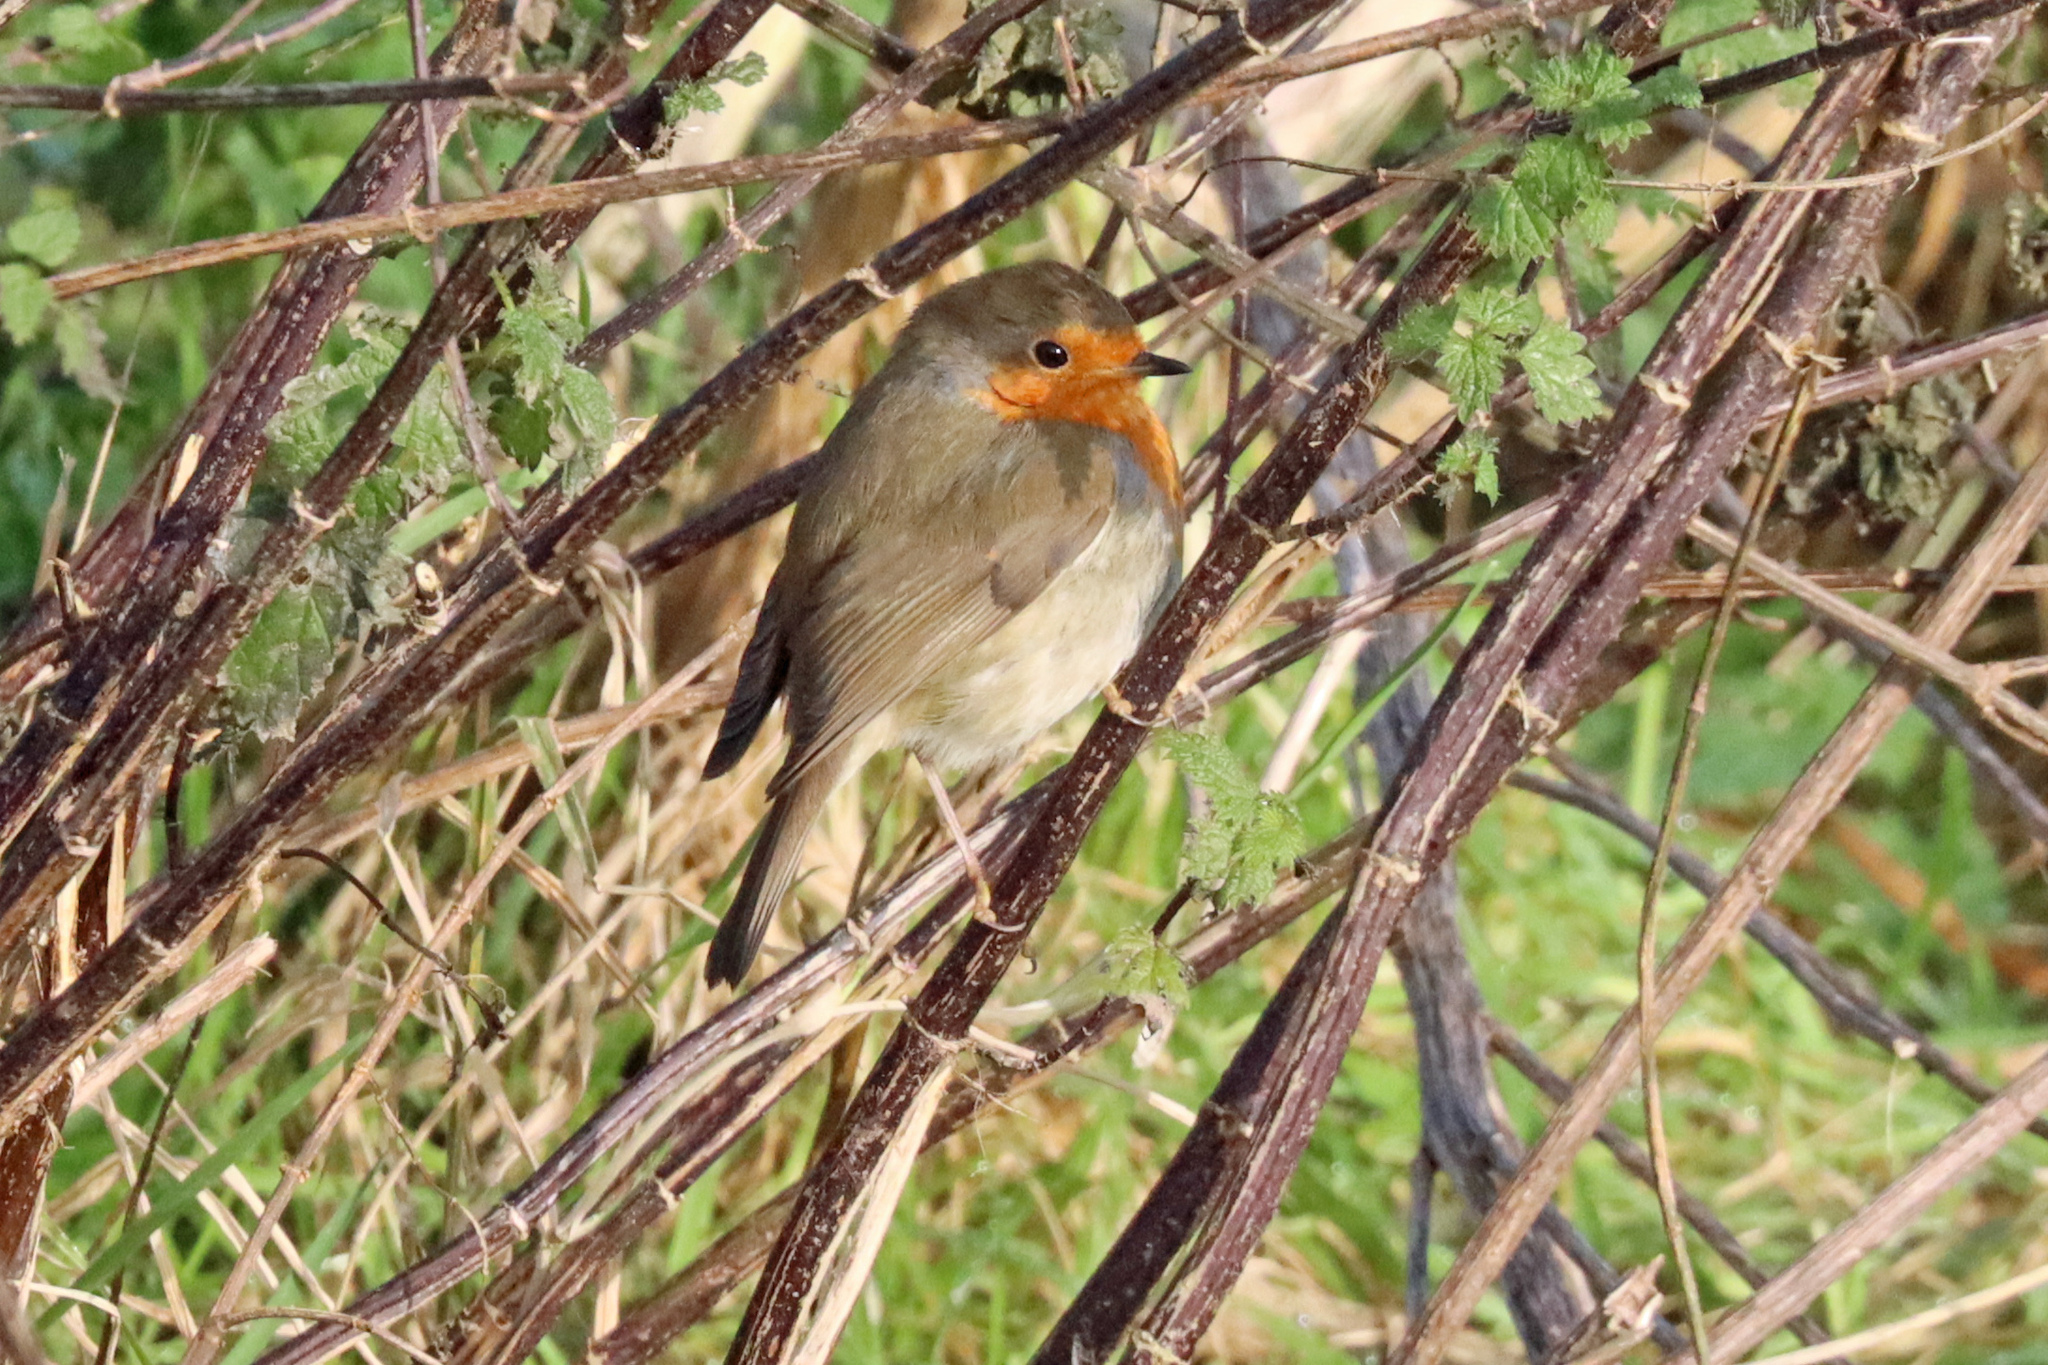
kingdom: Animalia
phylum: Chordata
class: Aves
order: Passeriformes
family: Muscicapidae
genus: Erithacus
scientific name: Erithacus rubecula
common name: European robin
